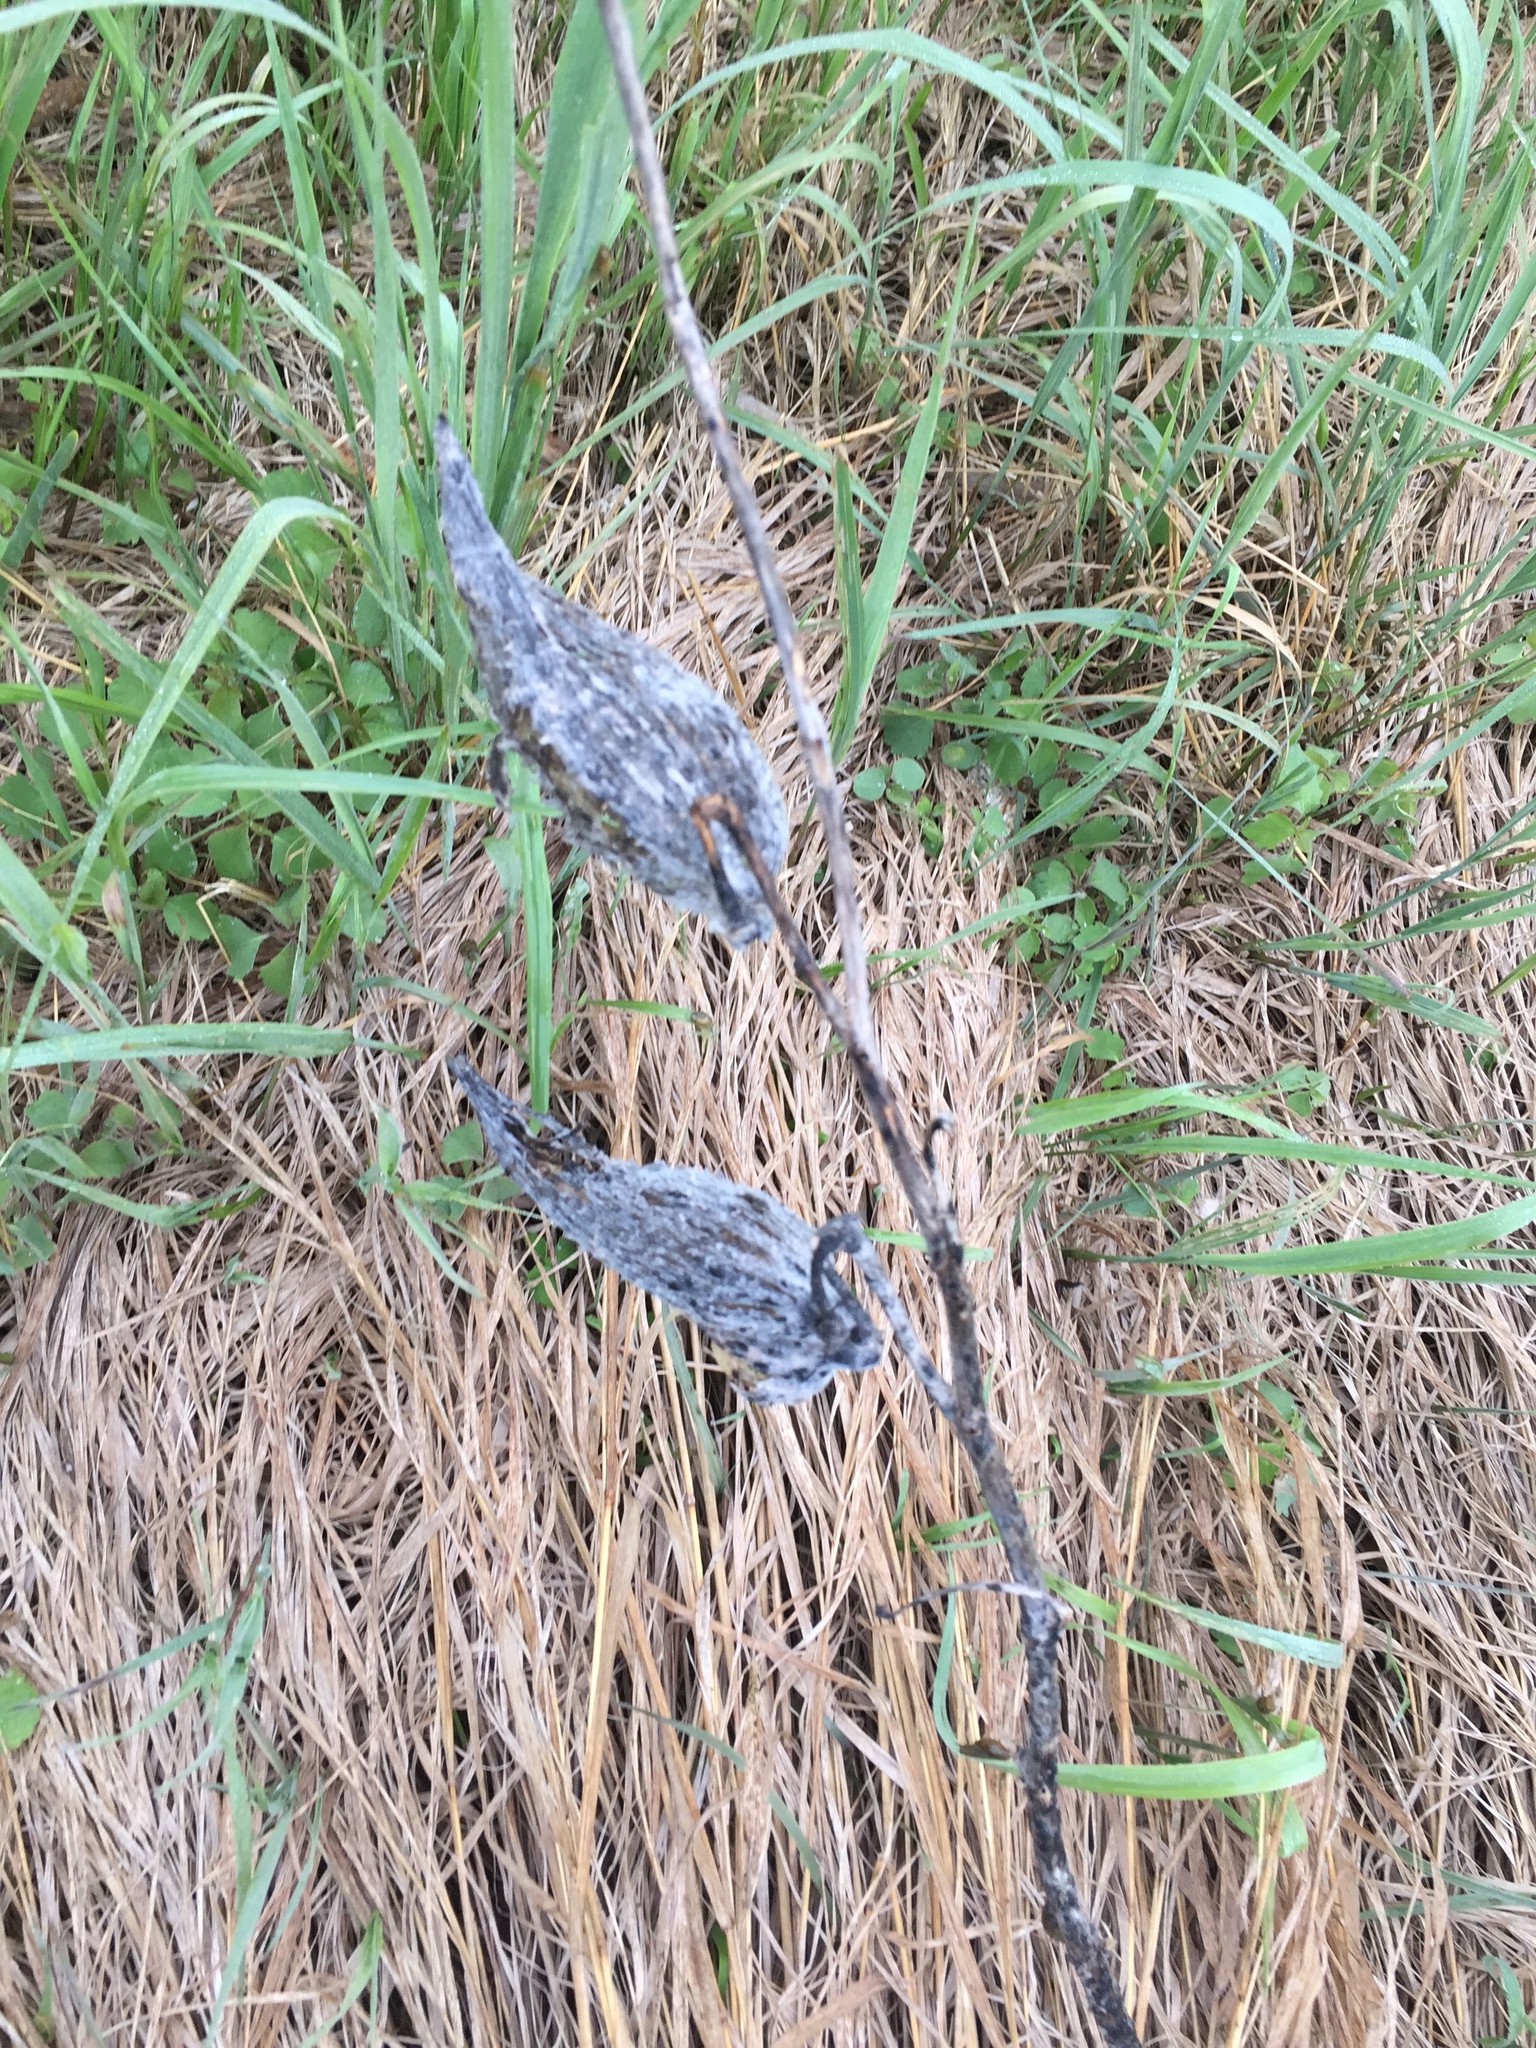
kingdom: Plantae
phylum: Tracheophyta
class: Magnoliopsida
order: Gentianales
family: Apocynaceae
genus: Asclepias
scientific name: Asclepias syriaca
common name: Common milkweed
